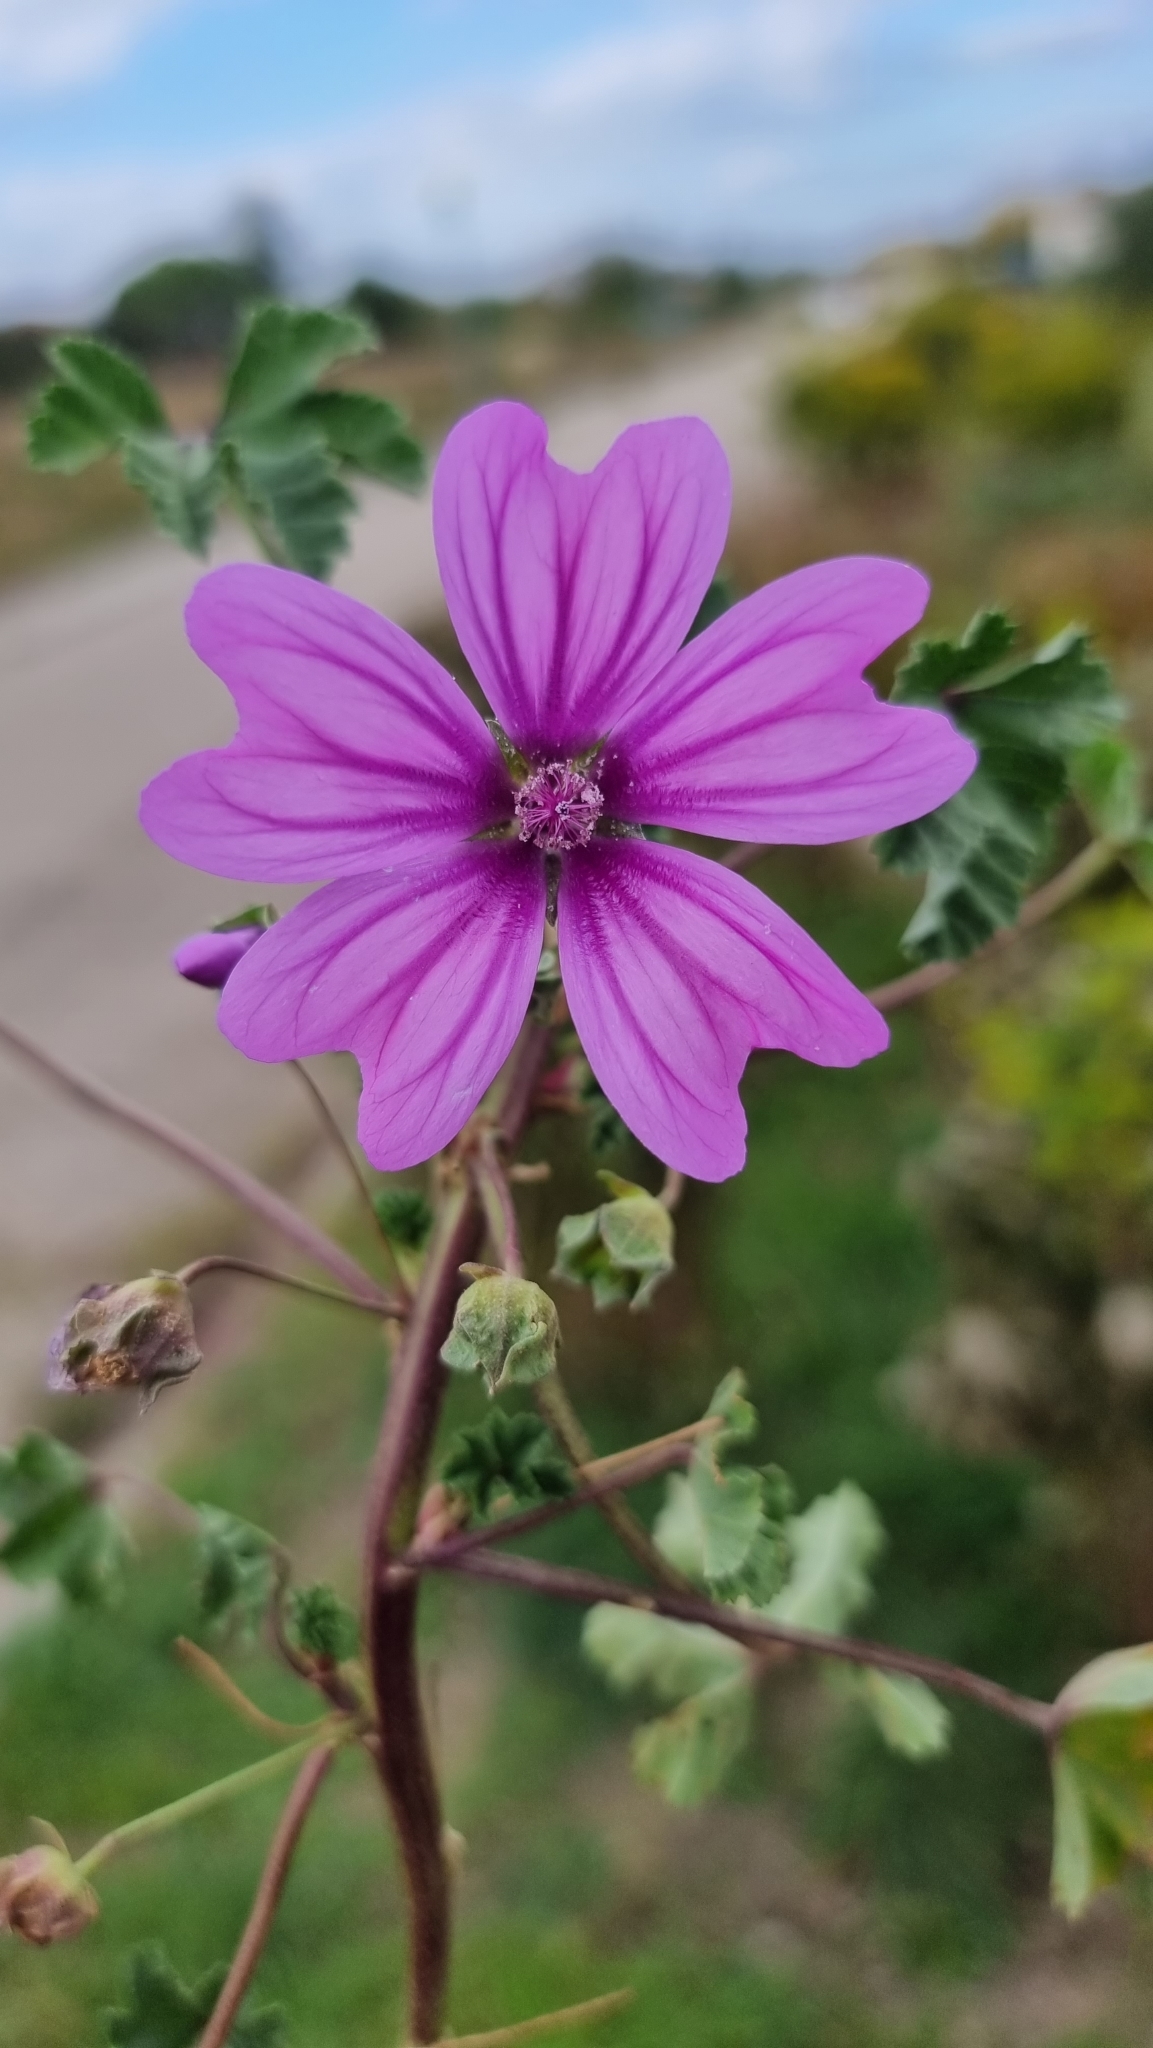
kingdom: Plantae
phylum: Tracheophyta
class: Magnoliopsida
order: Malvales
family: Malvaceae
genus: Malva
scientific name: Malva sylvestris
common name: Common mallow
